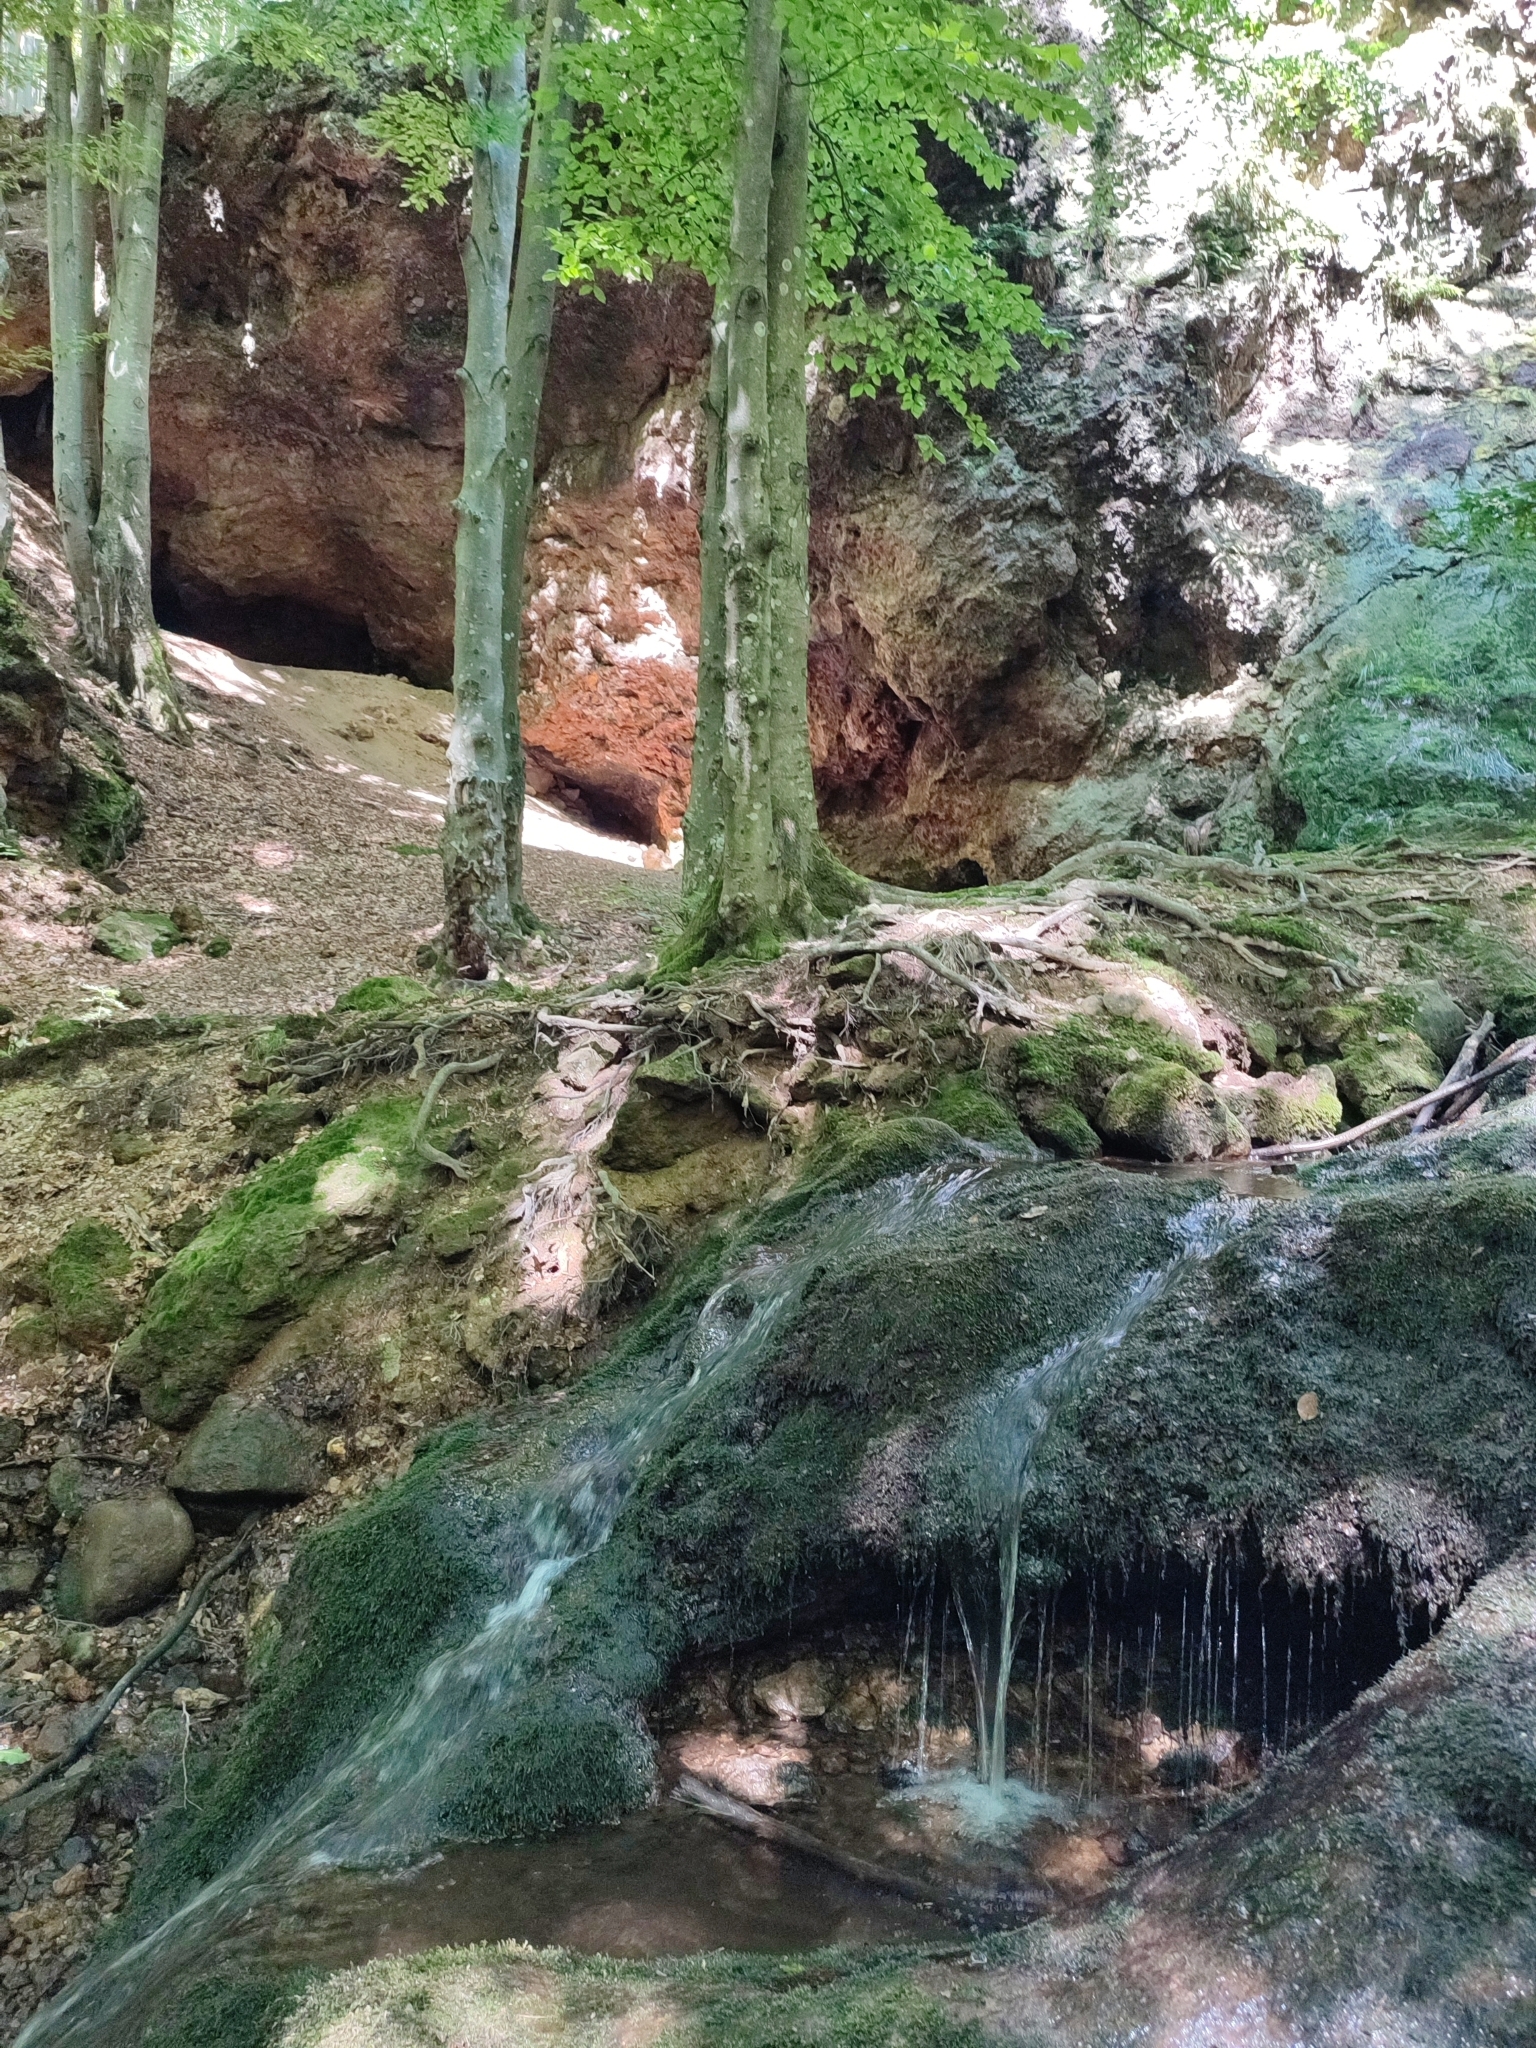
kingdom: Plantae
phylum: Tracheophyta
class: Magnoliopsida
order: Fagales
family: Fagaceae
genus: Fagus
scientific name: Fagus sylvatica
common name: Beech
